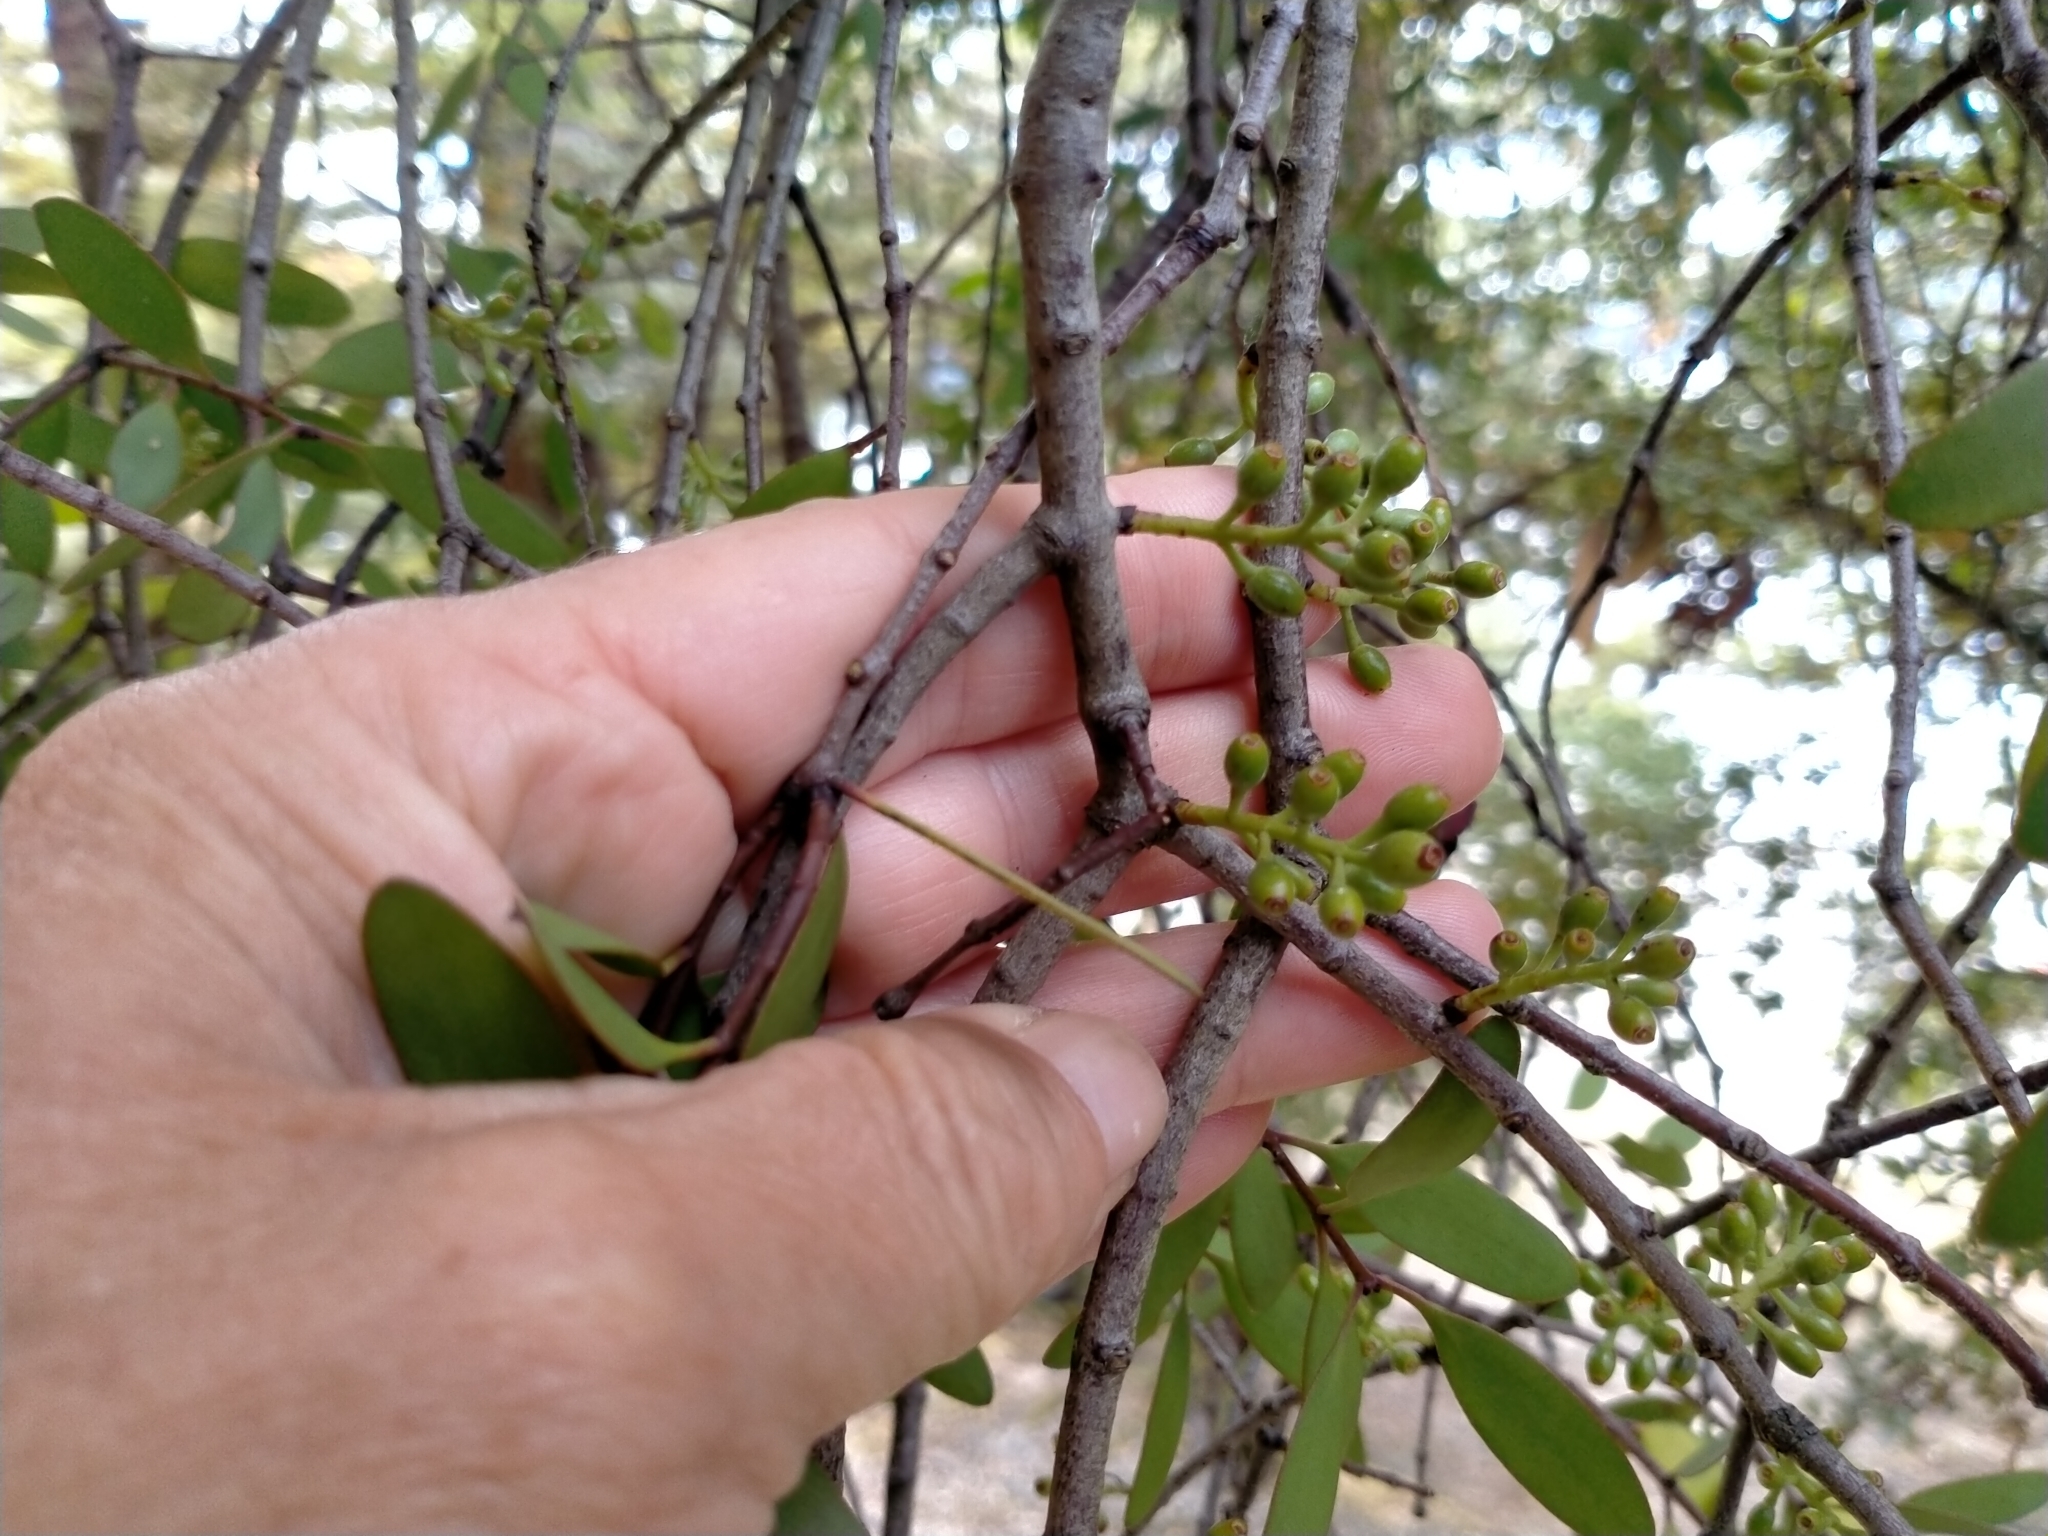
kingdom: Plantae
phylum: Tracheophyta
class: Magnoliopsida
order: Santalales
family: Loranthaceae
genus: Alepis
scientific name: Alepis flavida
